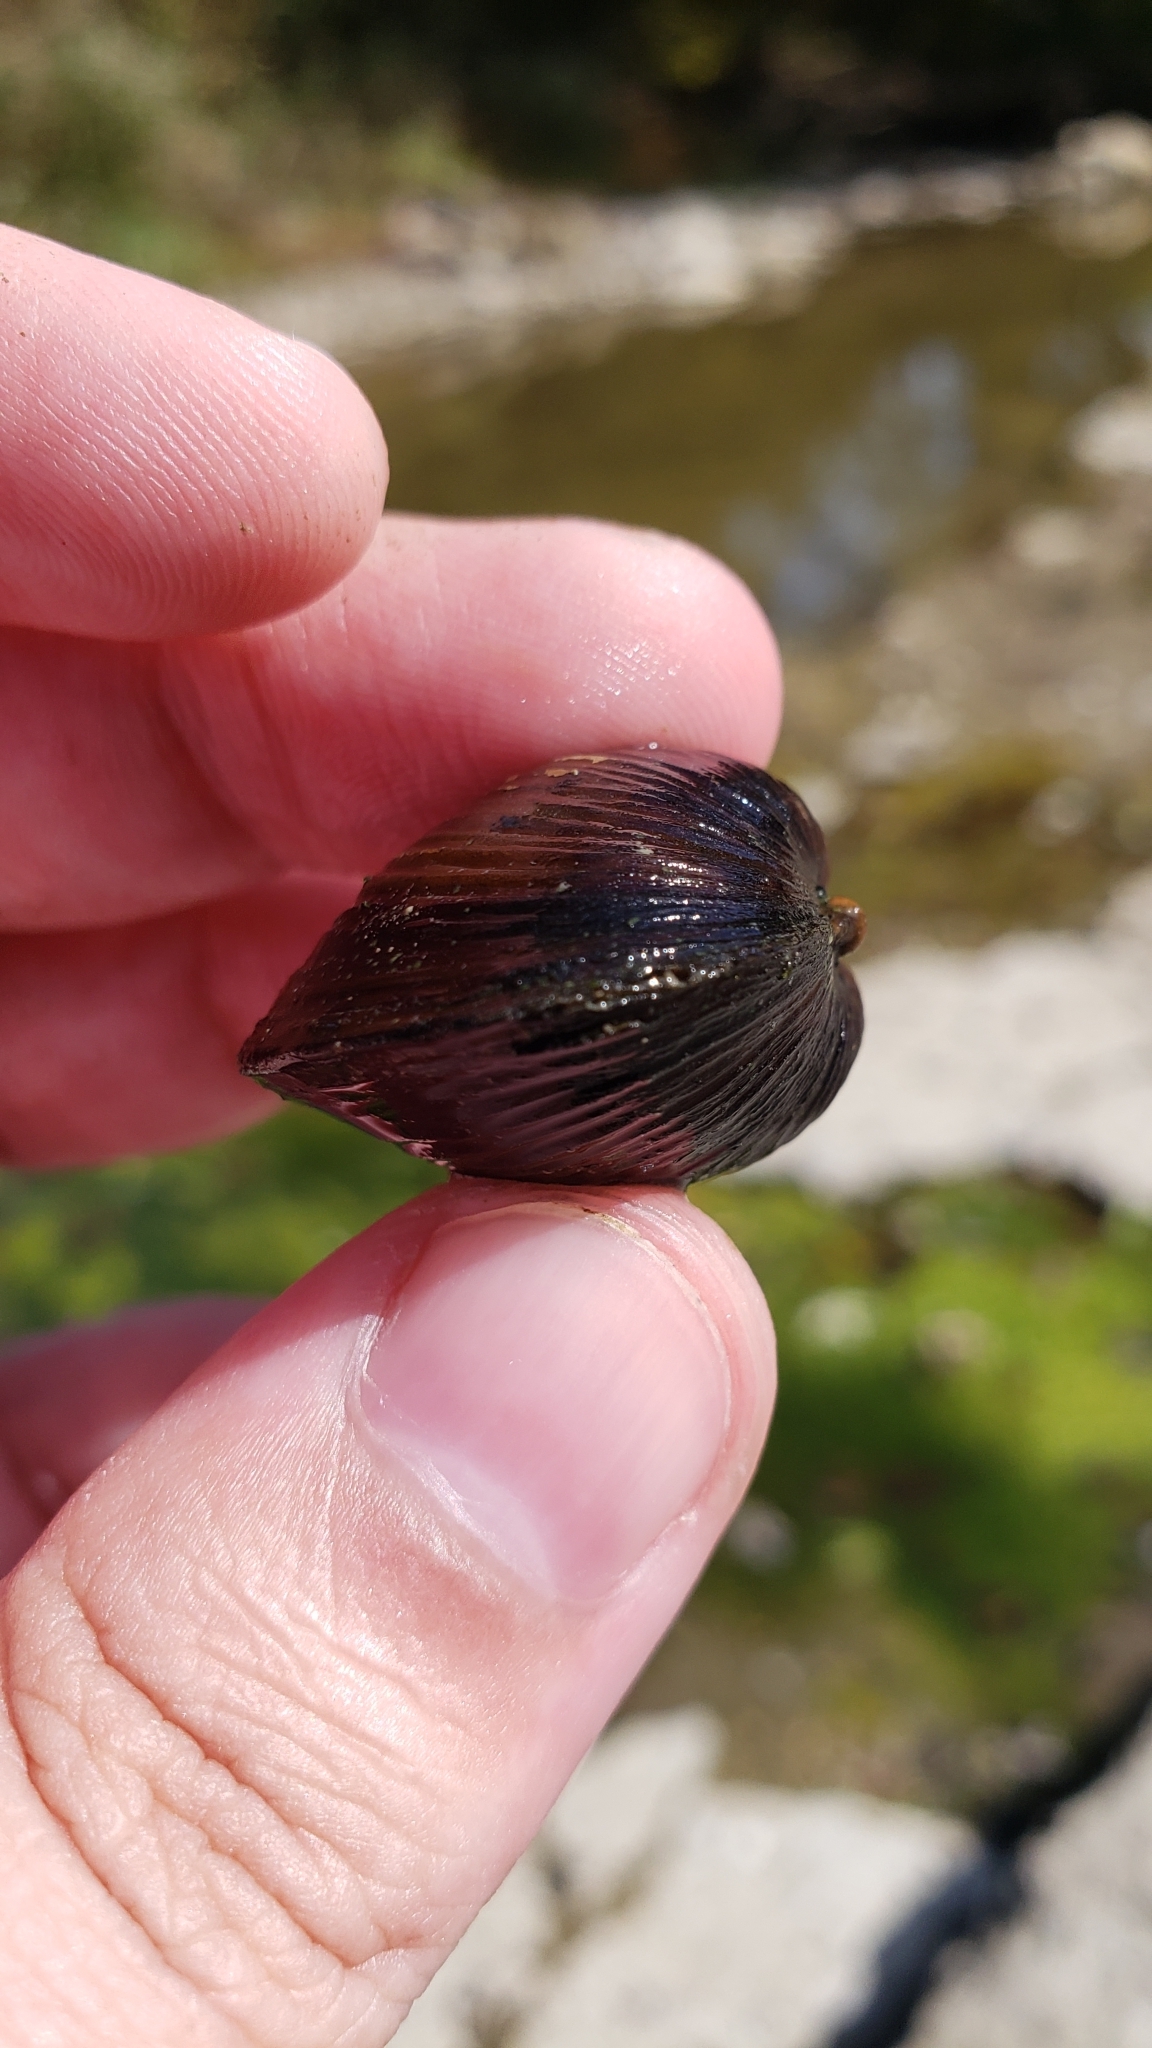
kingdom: Animalia
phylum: Mollusca
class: Bivalvia
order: Venerida
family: Cyrenidae
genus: Corbicula
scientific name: Corbicula fluminea
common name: Asian clam
